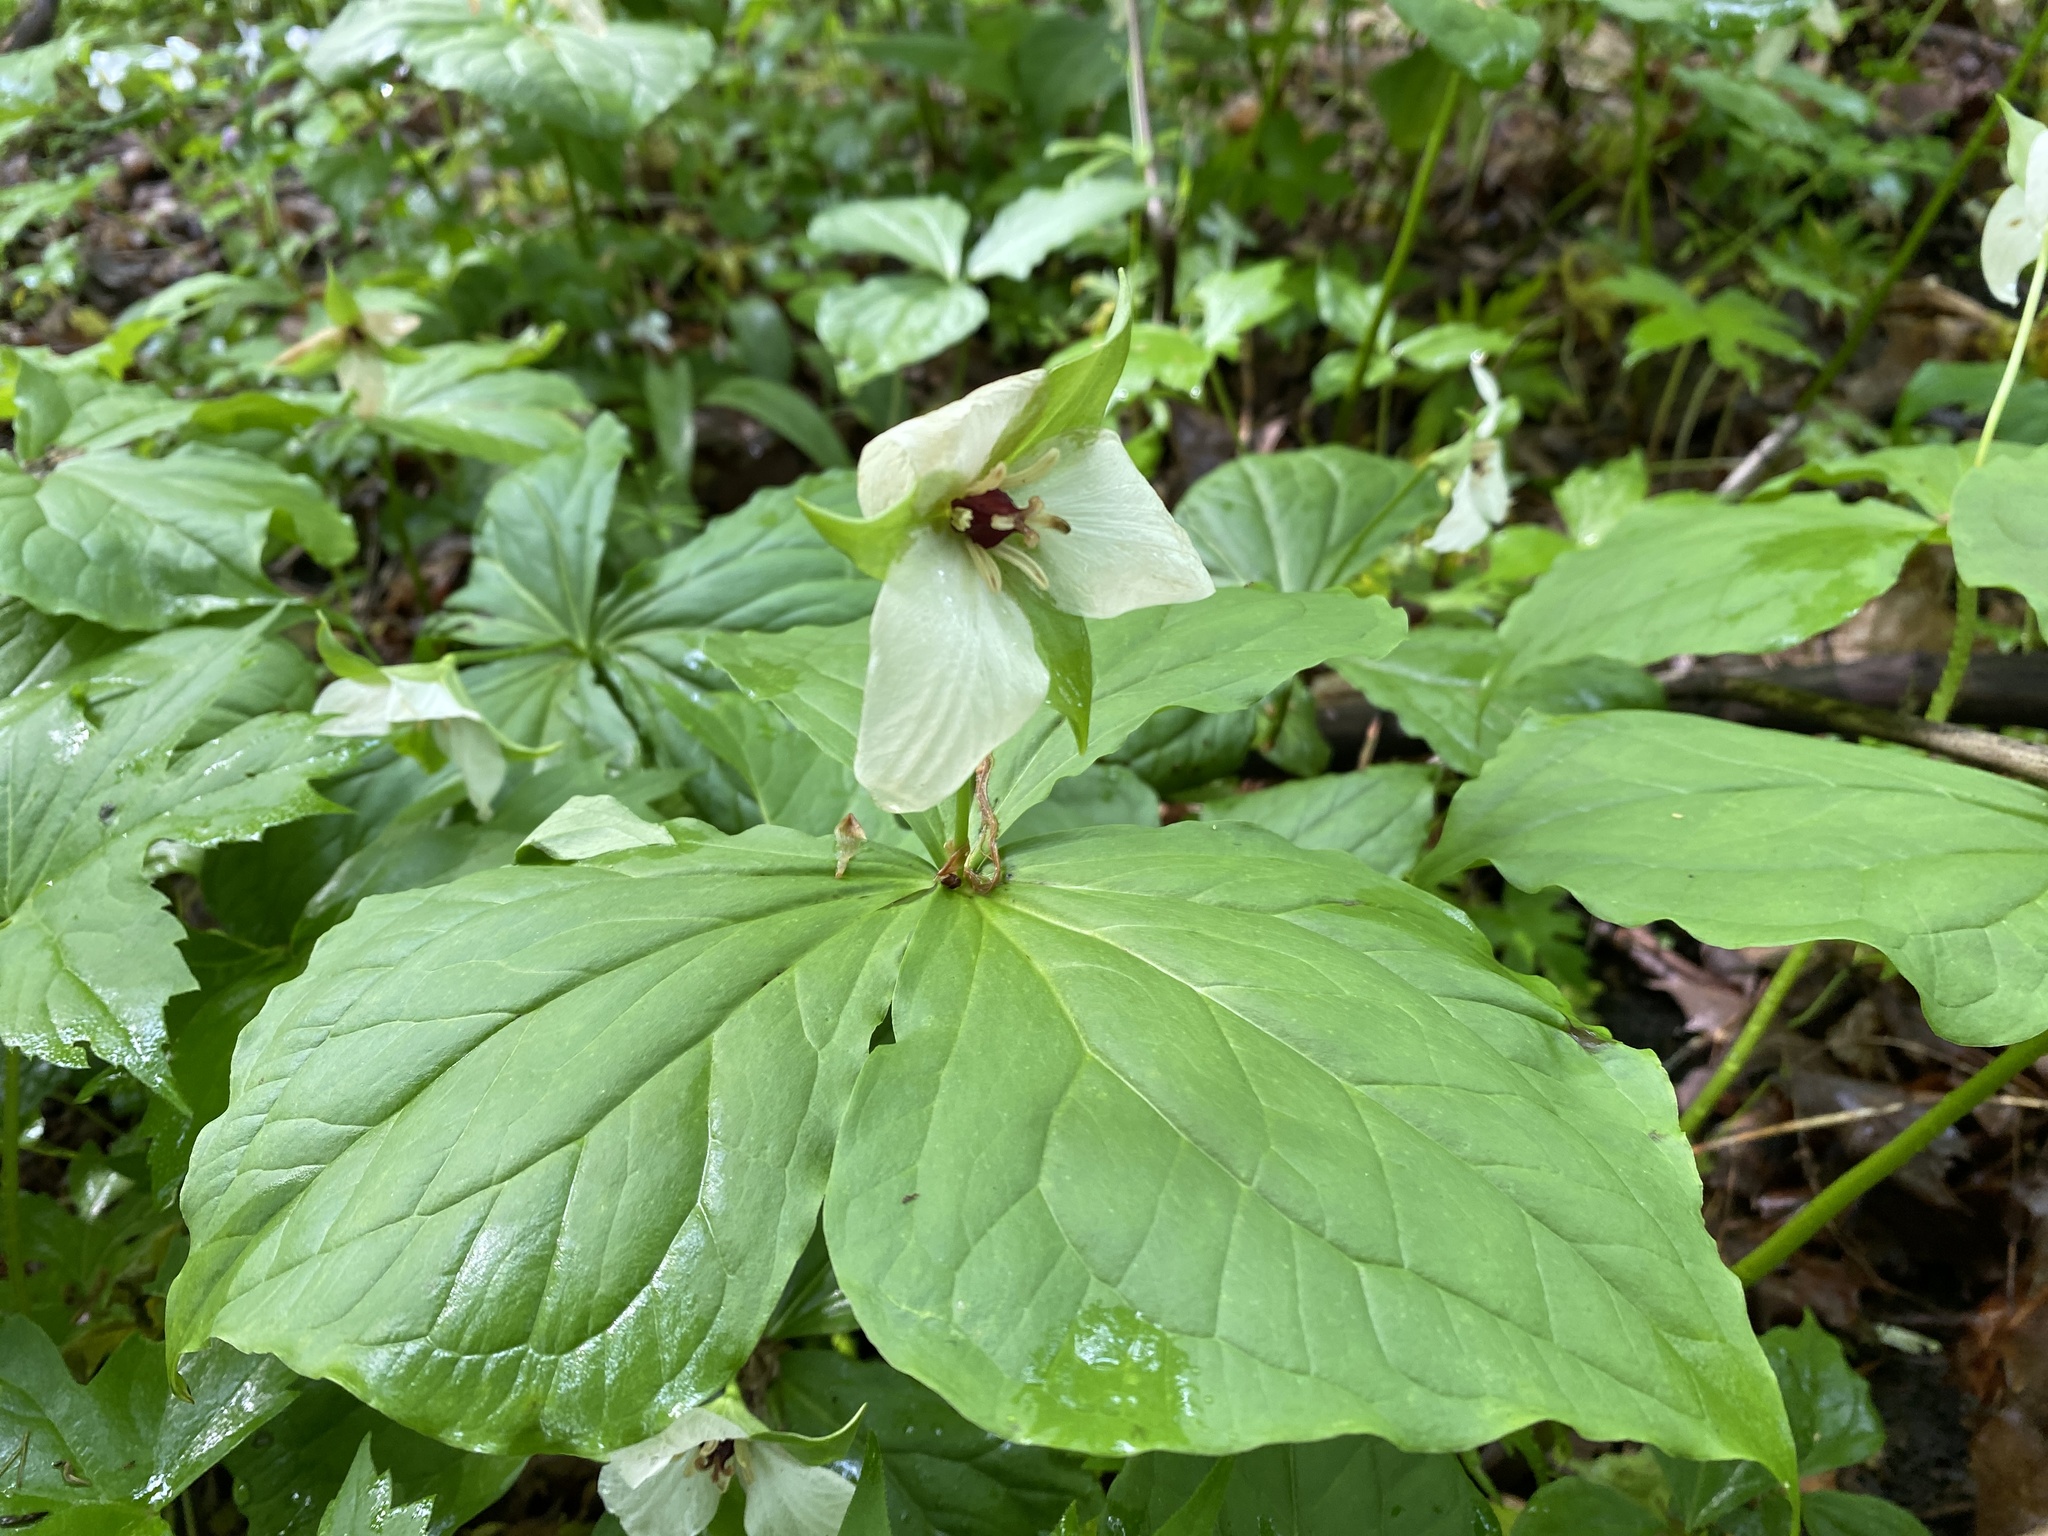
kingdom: Plantae
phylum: Tracheophyta
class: Liliopsida
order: Liliales
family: Melanthiaceae
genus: Trillium
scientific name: Trillium erectum
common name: Purple trillium
